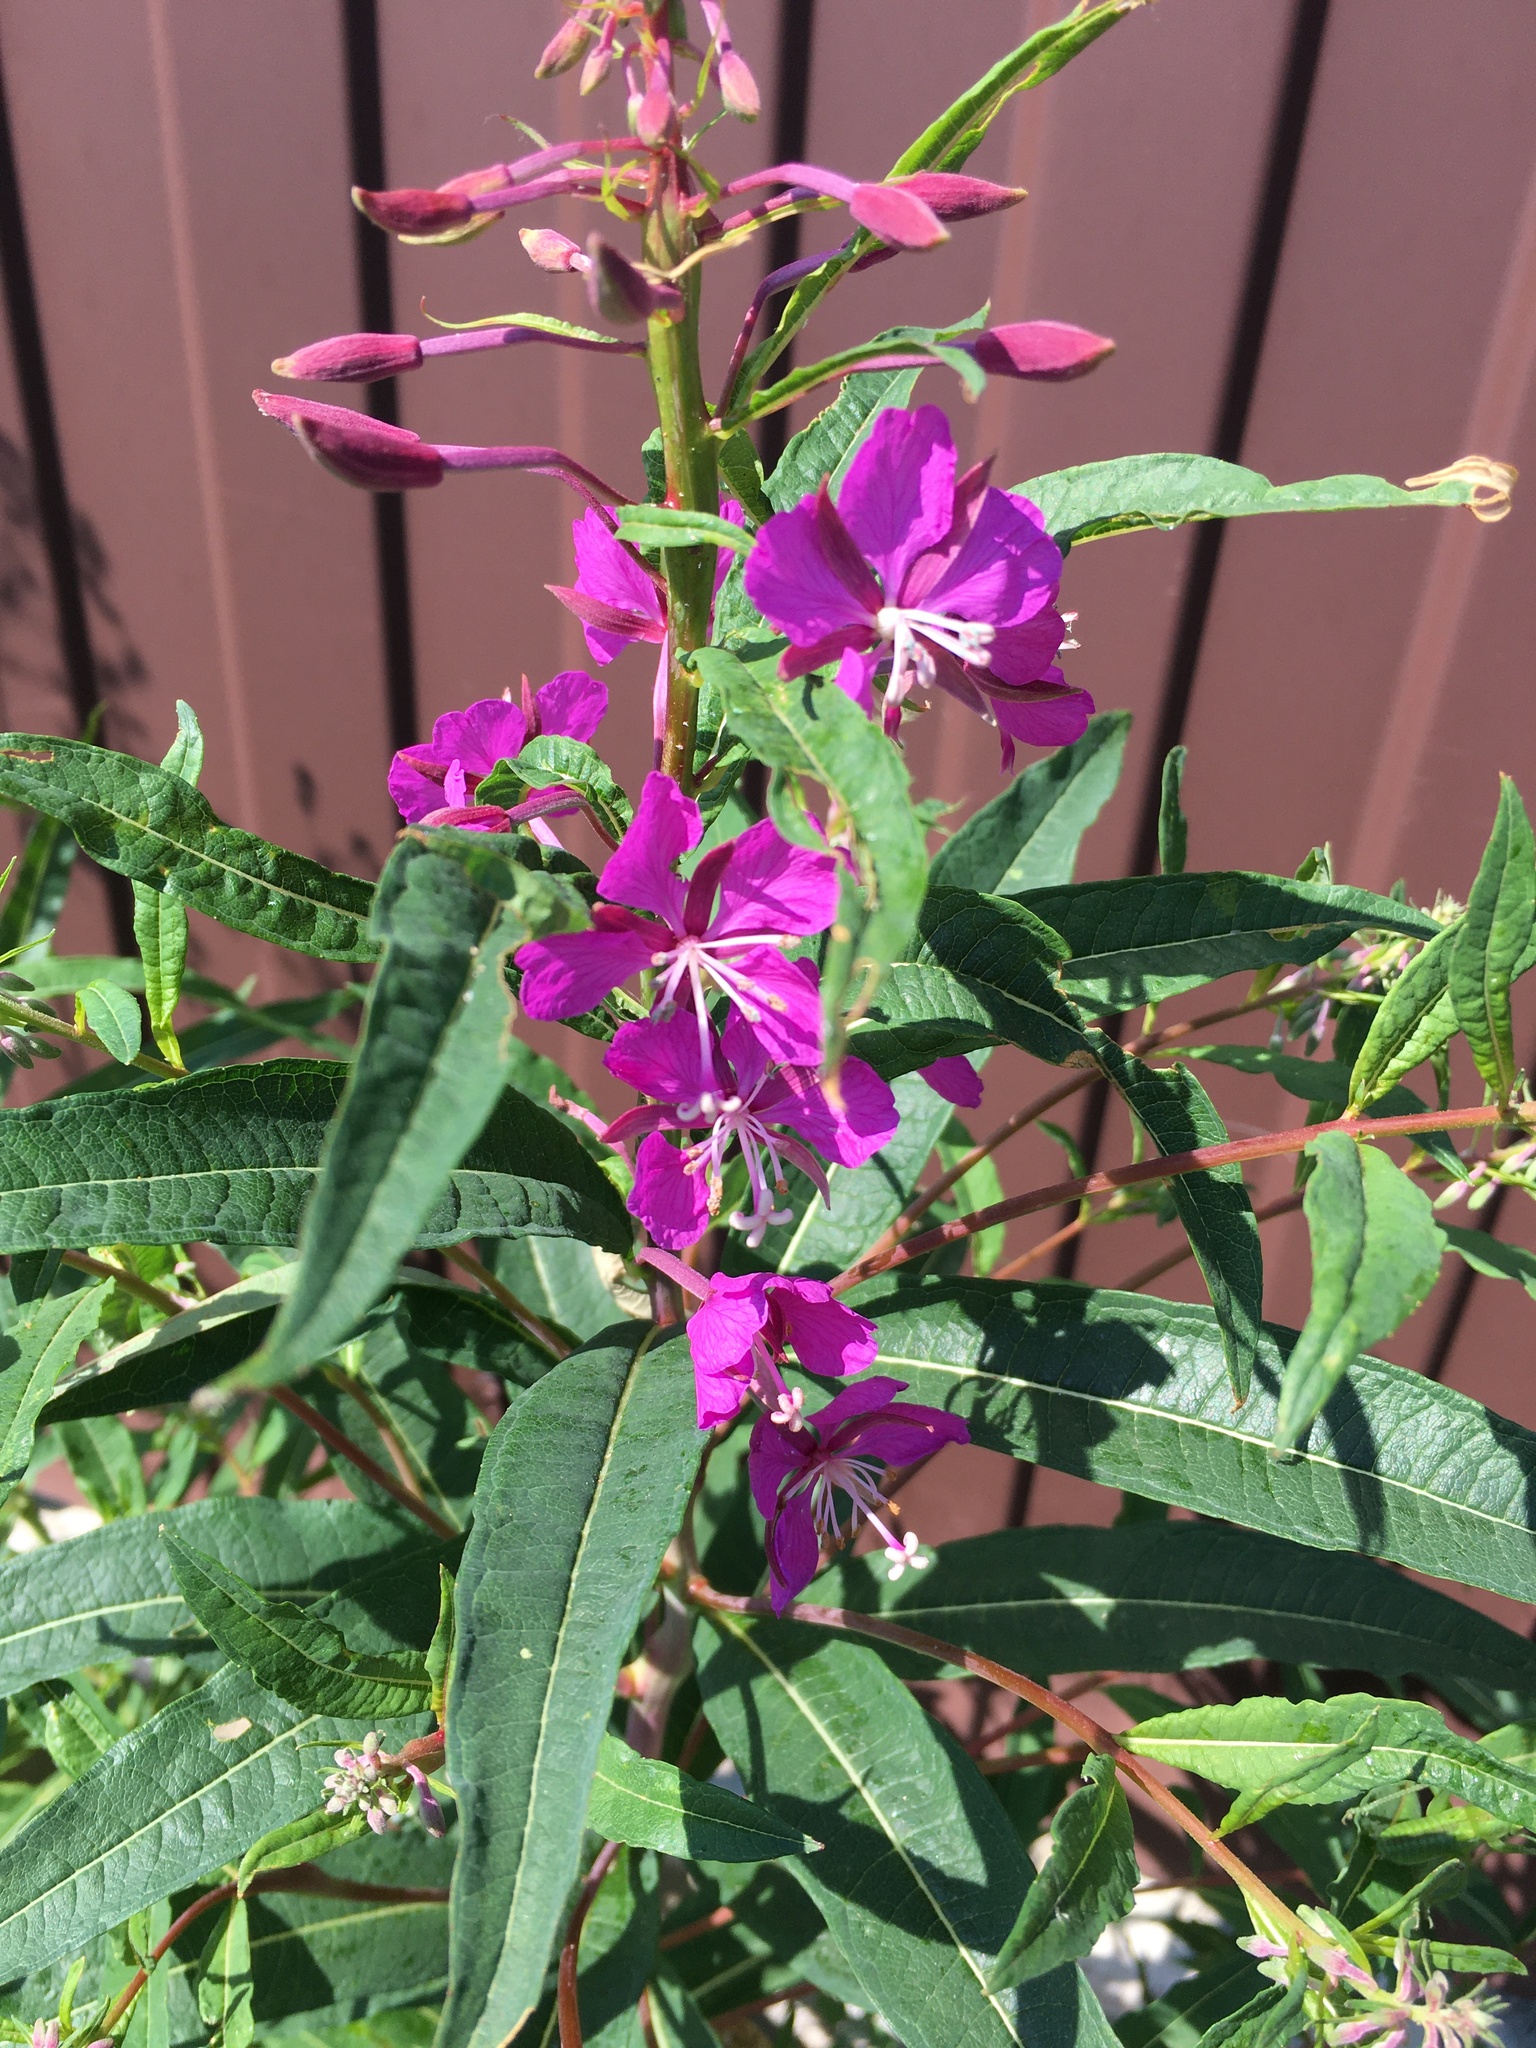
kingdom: Plantae
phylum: Tracheophyta
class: Magnoliopsida
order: Myrtales
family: Onagraceae
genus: Chamaenerion
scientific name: Chamaenerion angustifolium
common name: Fireweed
